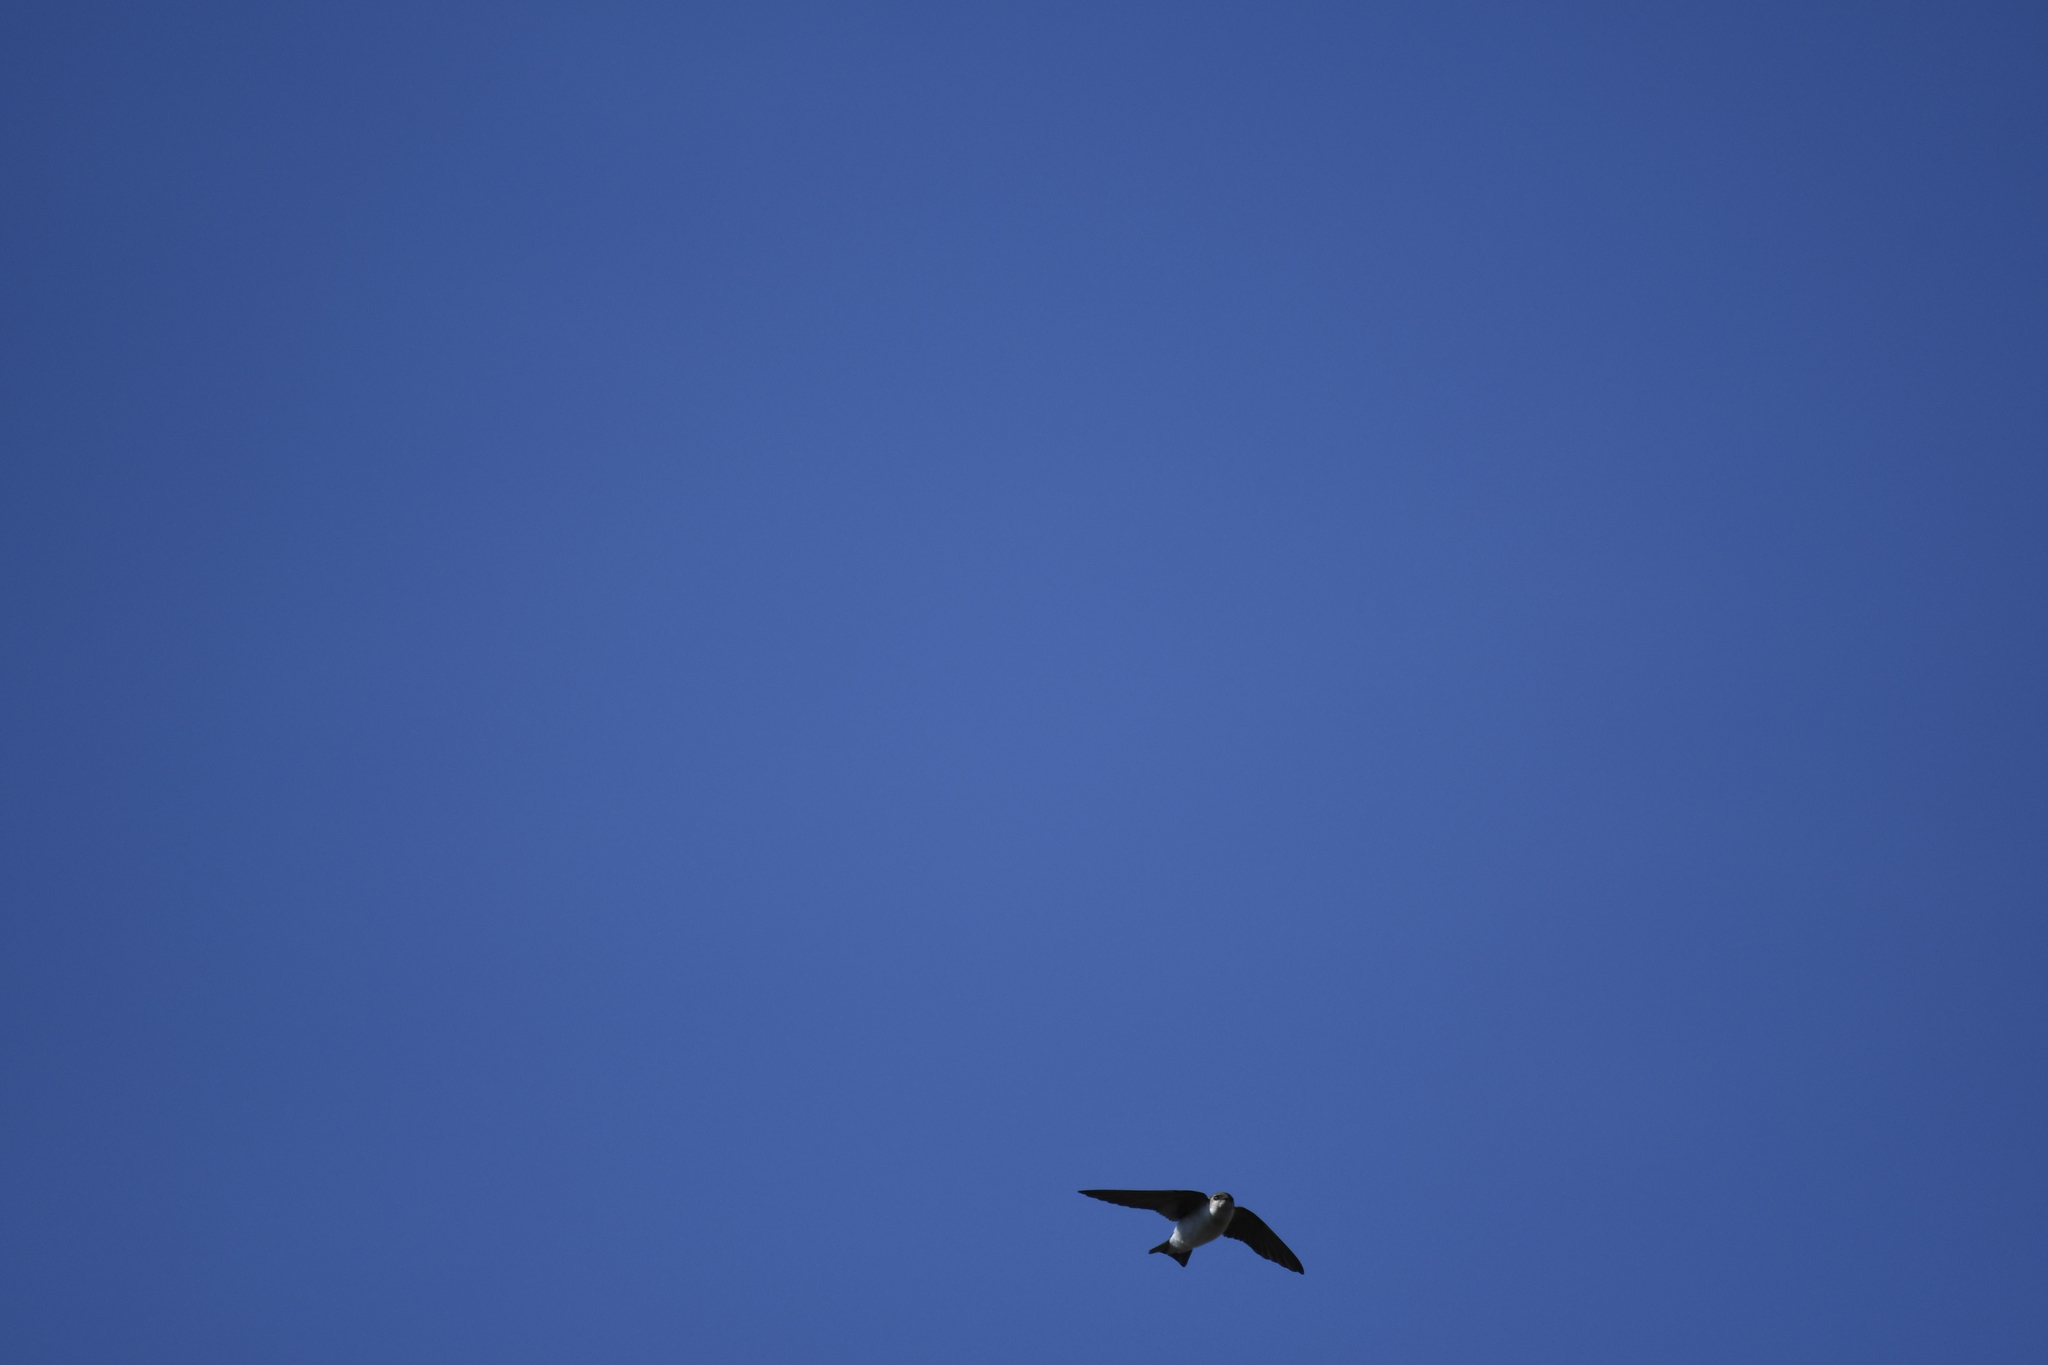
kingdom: Animalia
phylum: Chordata
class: Aves
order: Passeriformes
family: Hirundinidae
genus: Tachycineta
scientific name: Tachycineta thalassina
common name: Violet-green swallow
